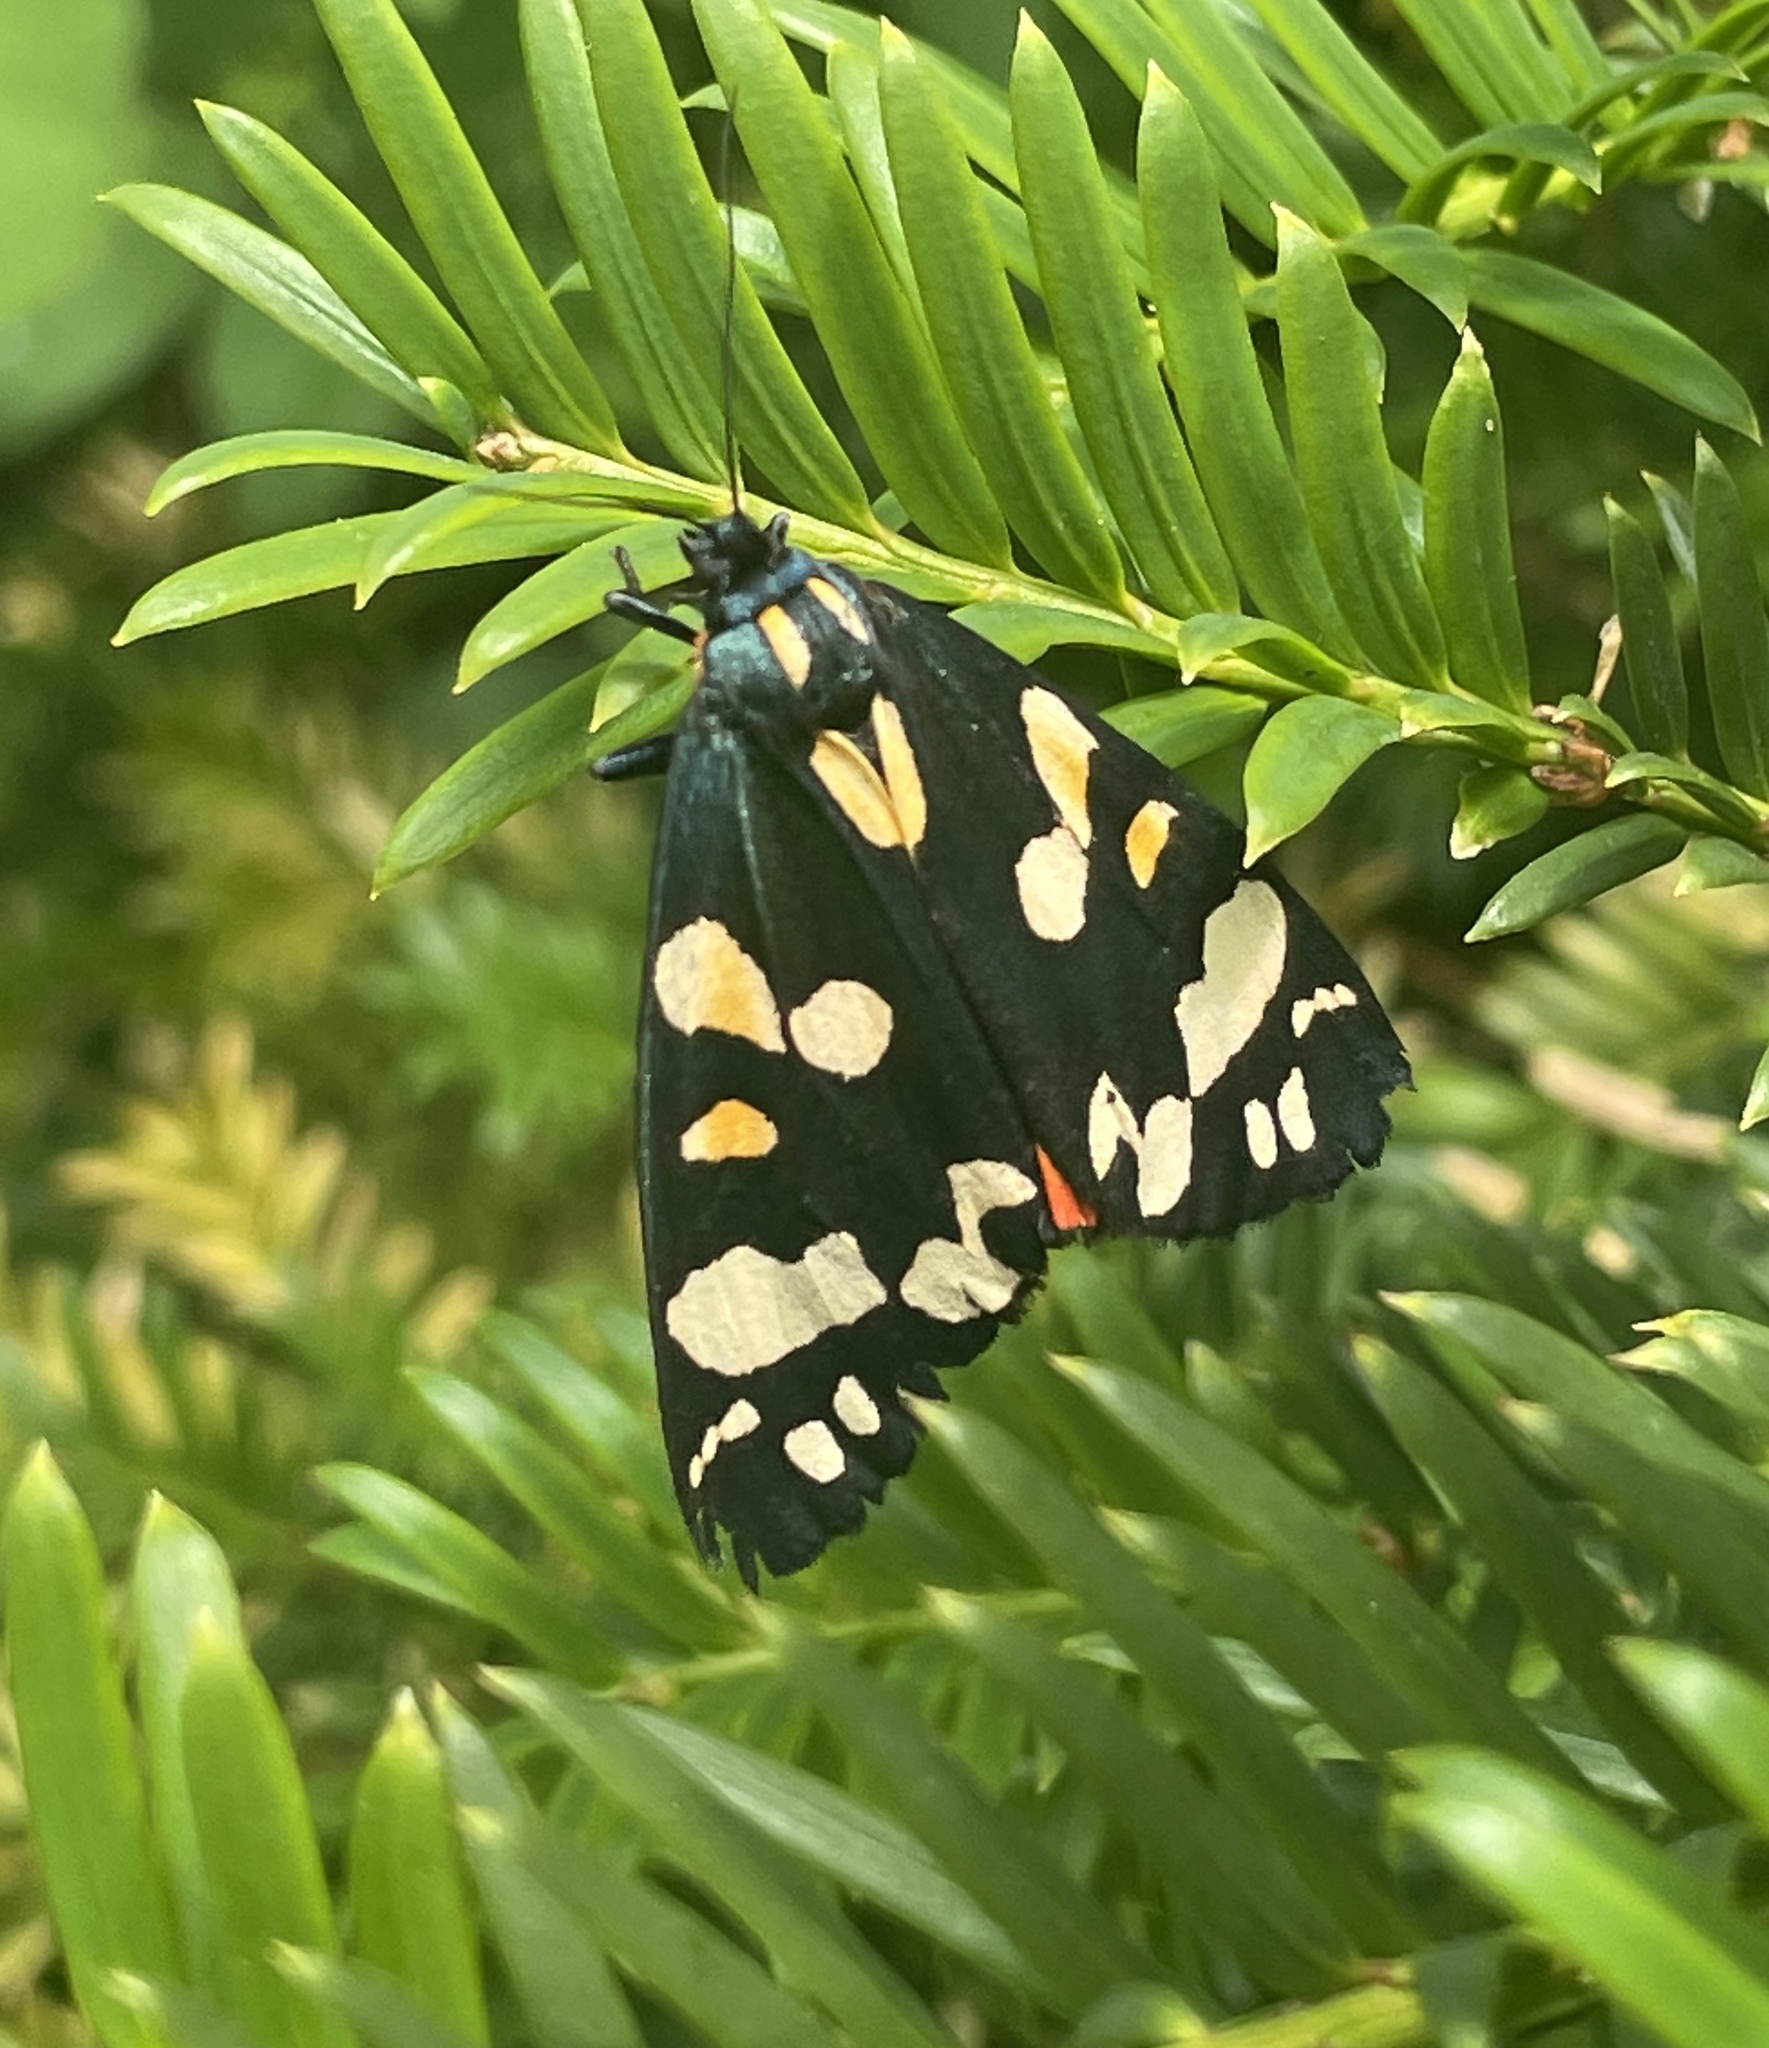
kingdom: Animalia
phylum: Arthropoda
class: Insecta
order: Lepidoptera
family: Erebidae
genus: Callimorpha
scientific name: Callimorpha dominula
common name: Scarlet tiger
